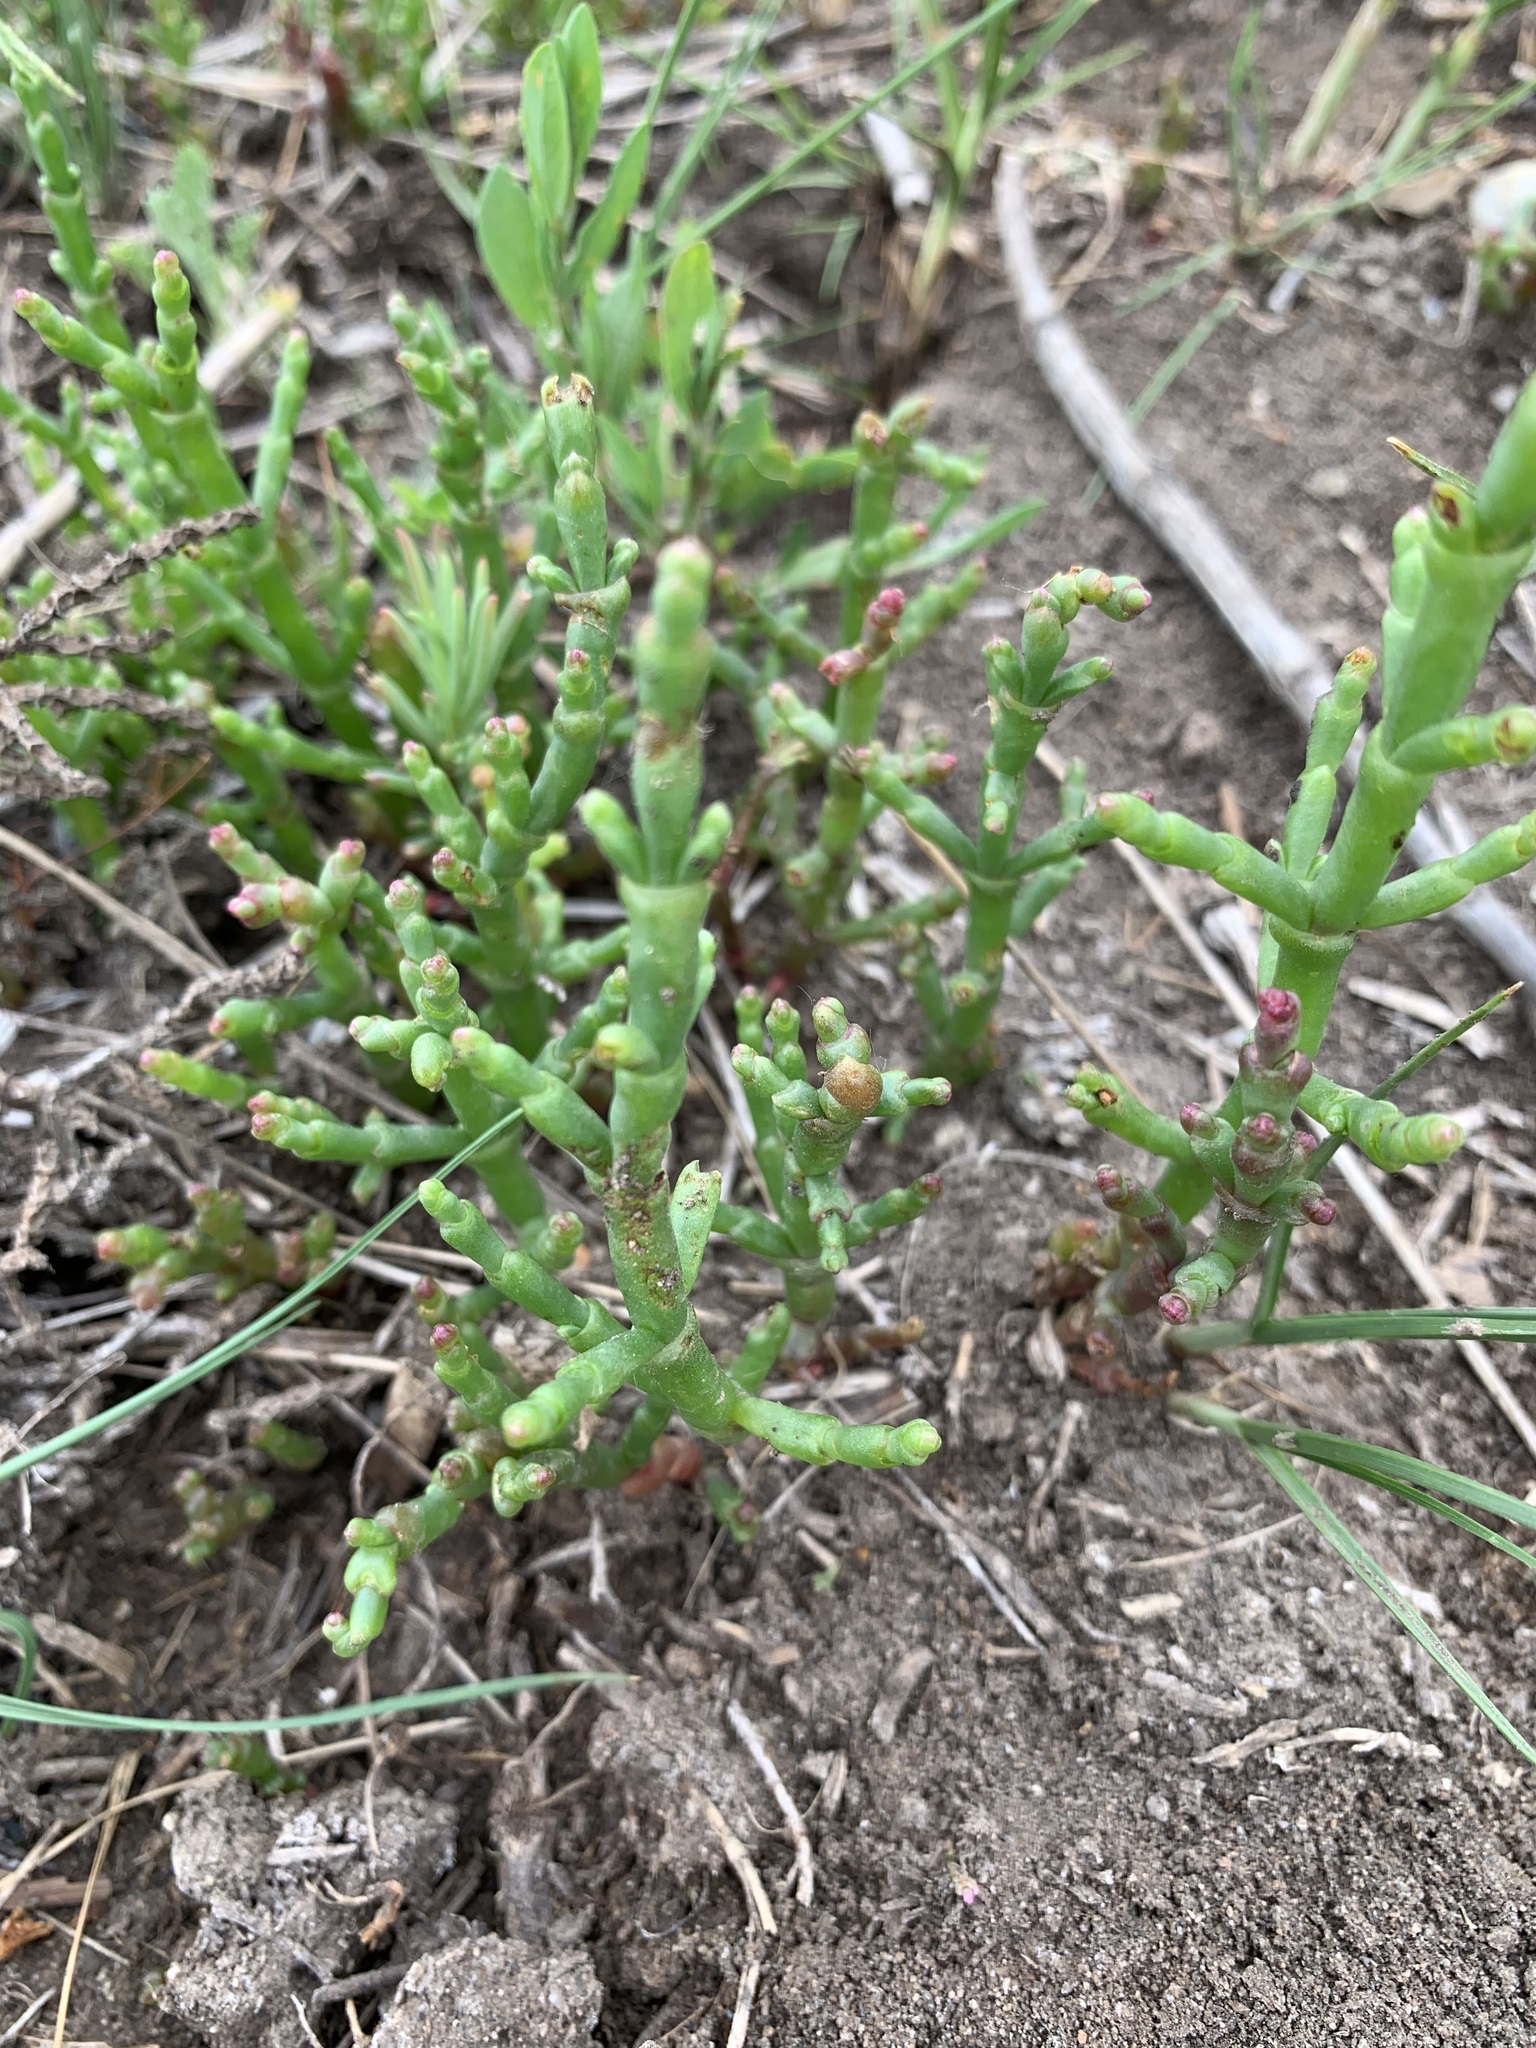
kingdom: Plantae
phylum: Tracheophyta
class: Magnoliopsida
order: Caryophyllales
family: Amaranthaceae
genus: Salicornia
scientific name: Salicornia perennans
